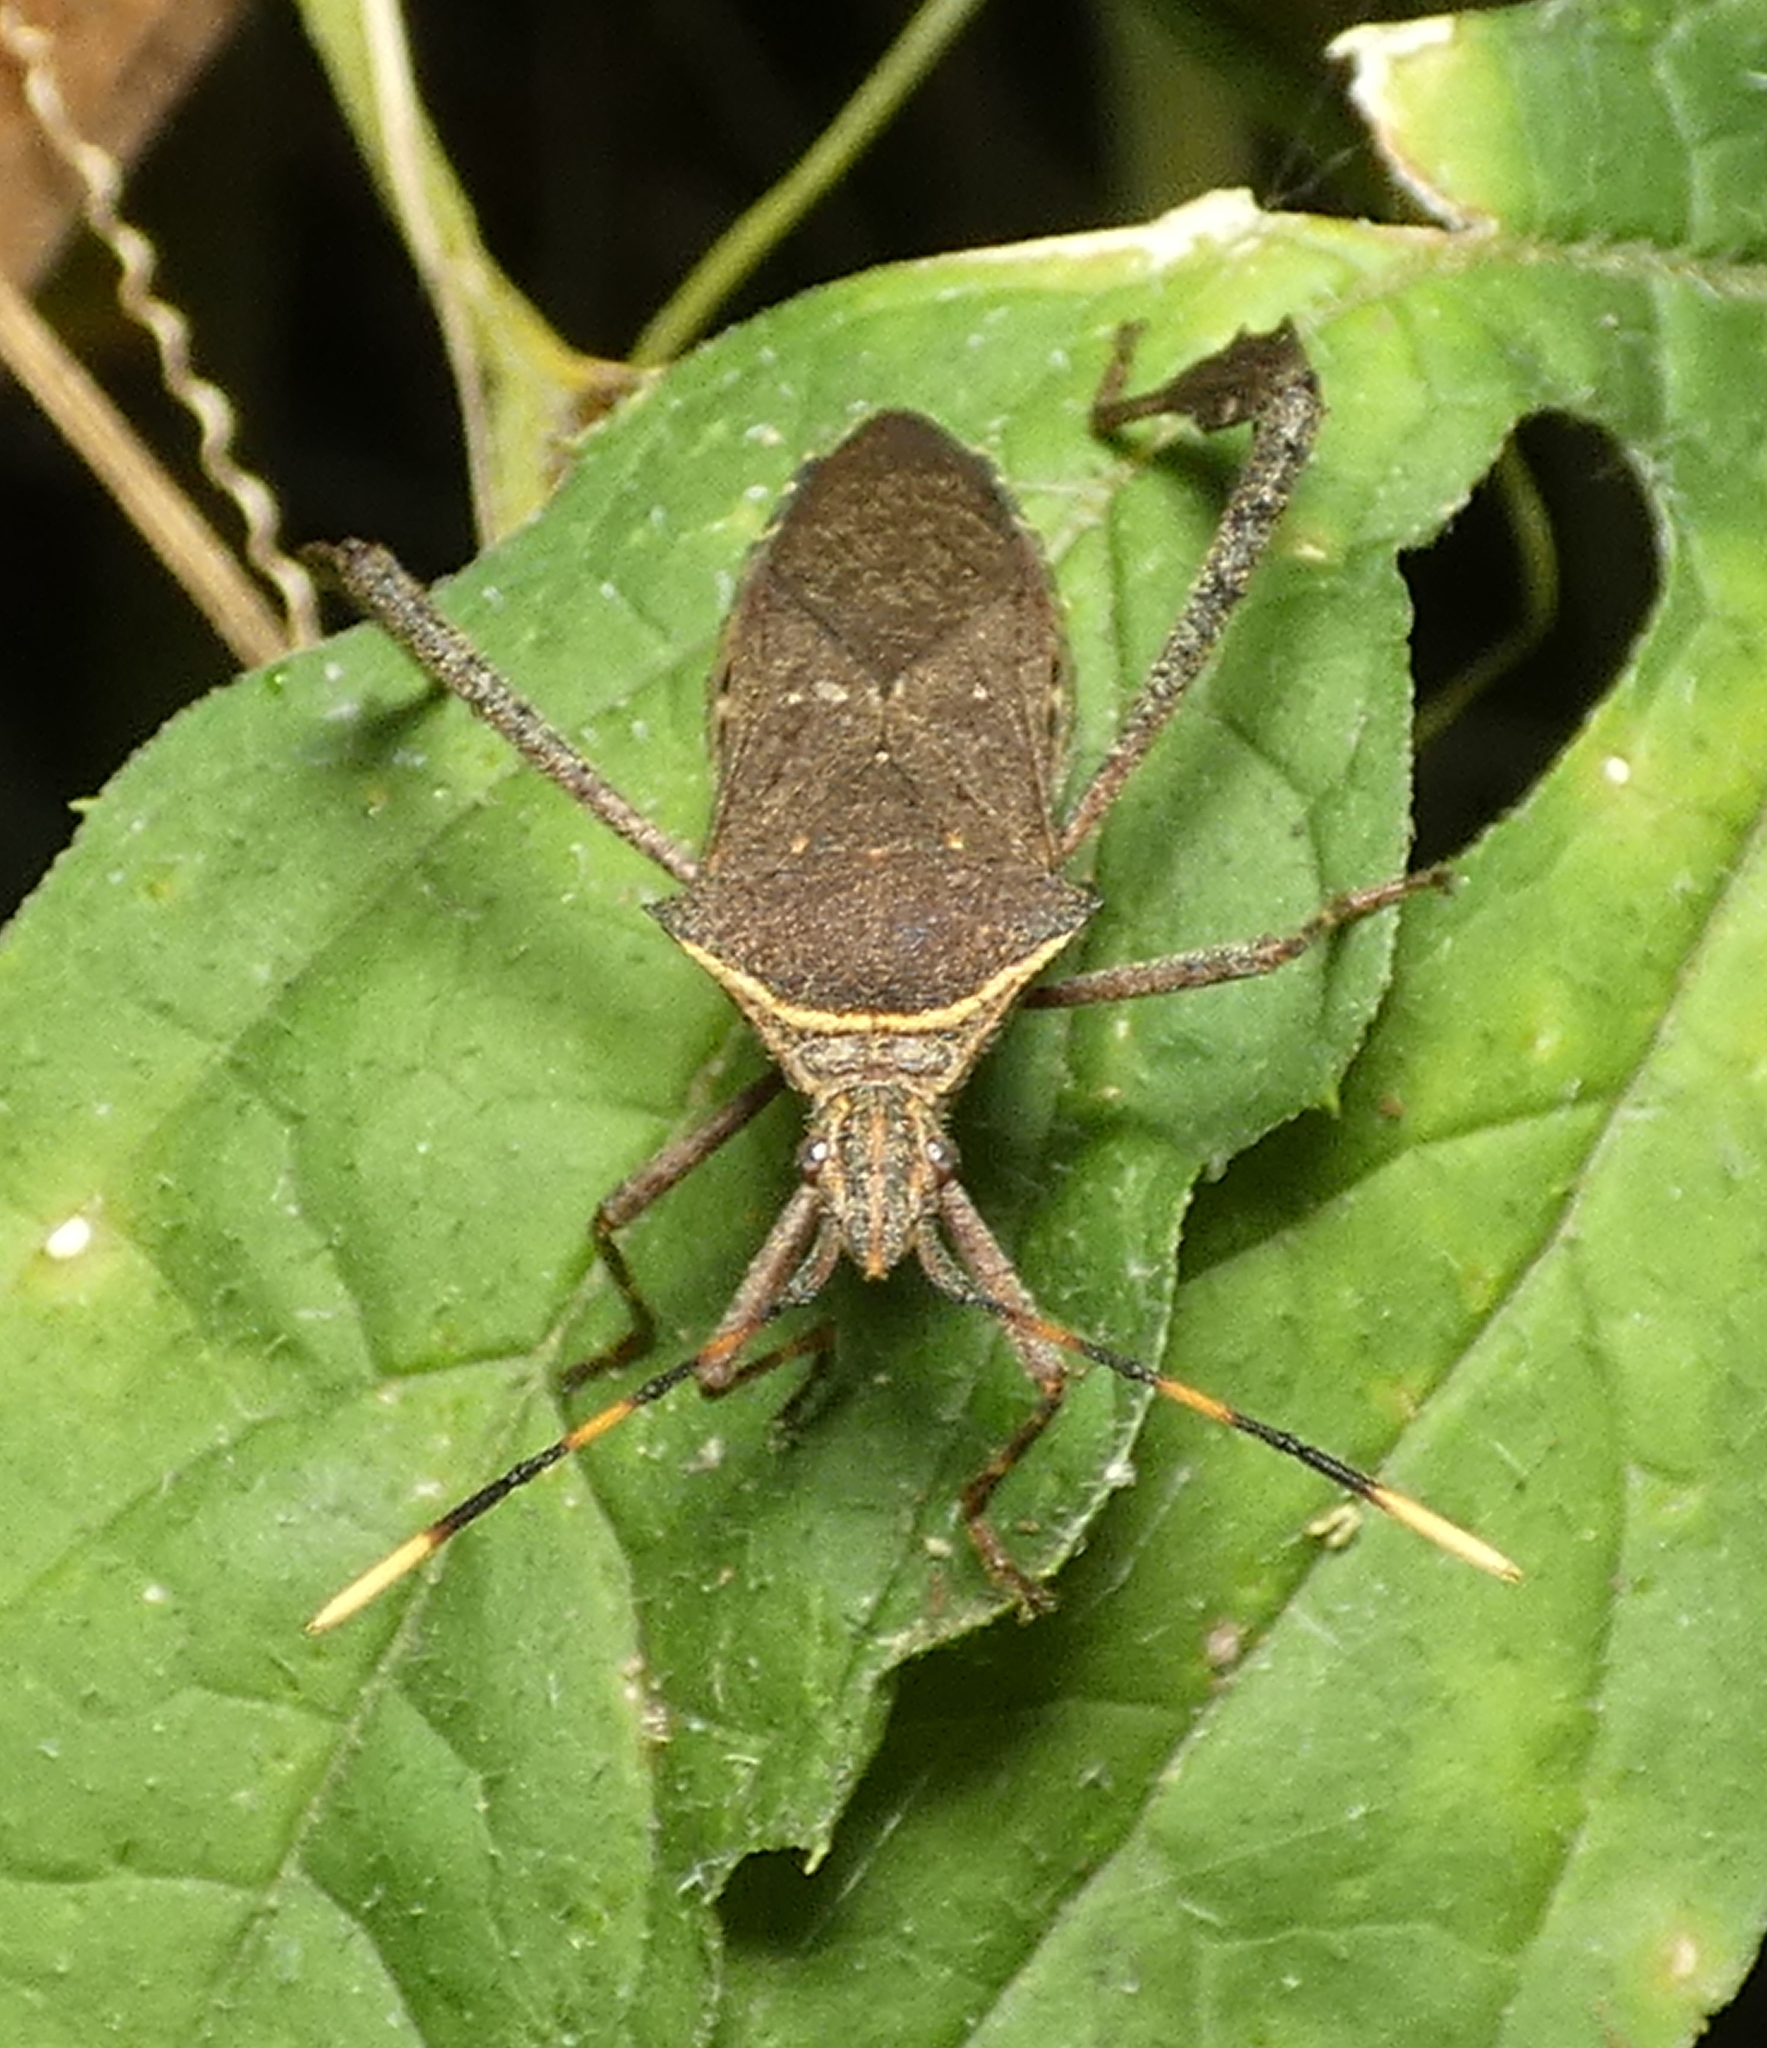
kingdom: Animalia
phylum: Arthropoda
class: Insecta
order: Hemiptera
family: Coreidae
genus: Leptoglossus
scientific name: Leptoglossus gonagra
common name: Citron bug
